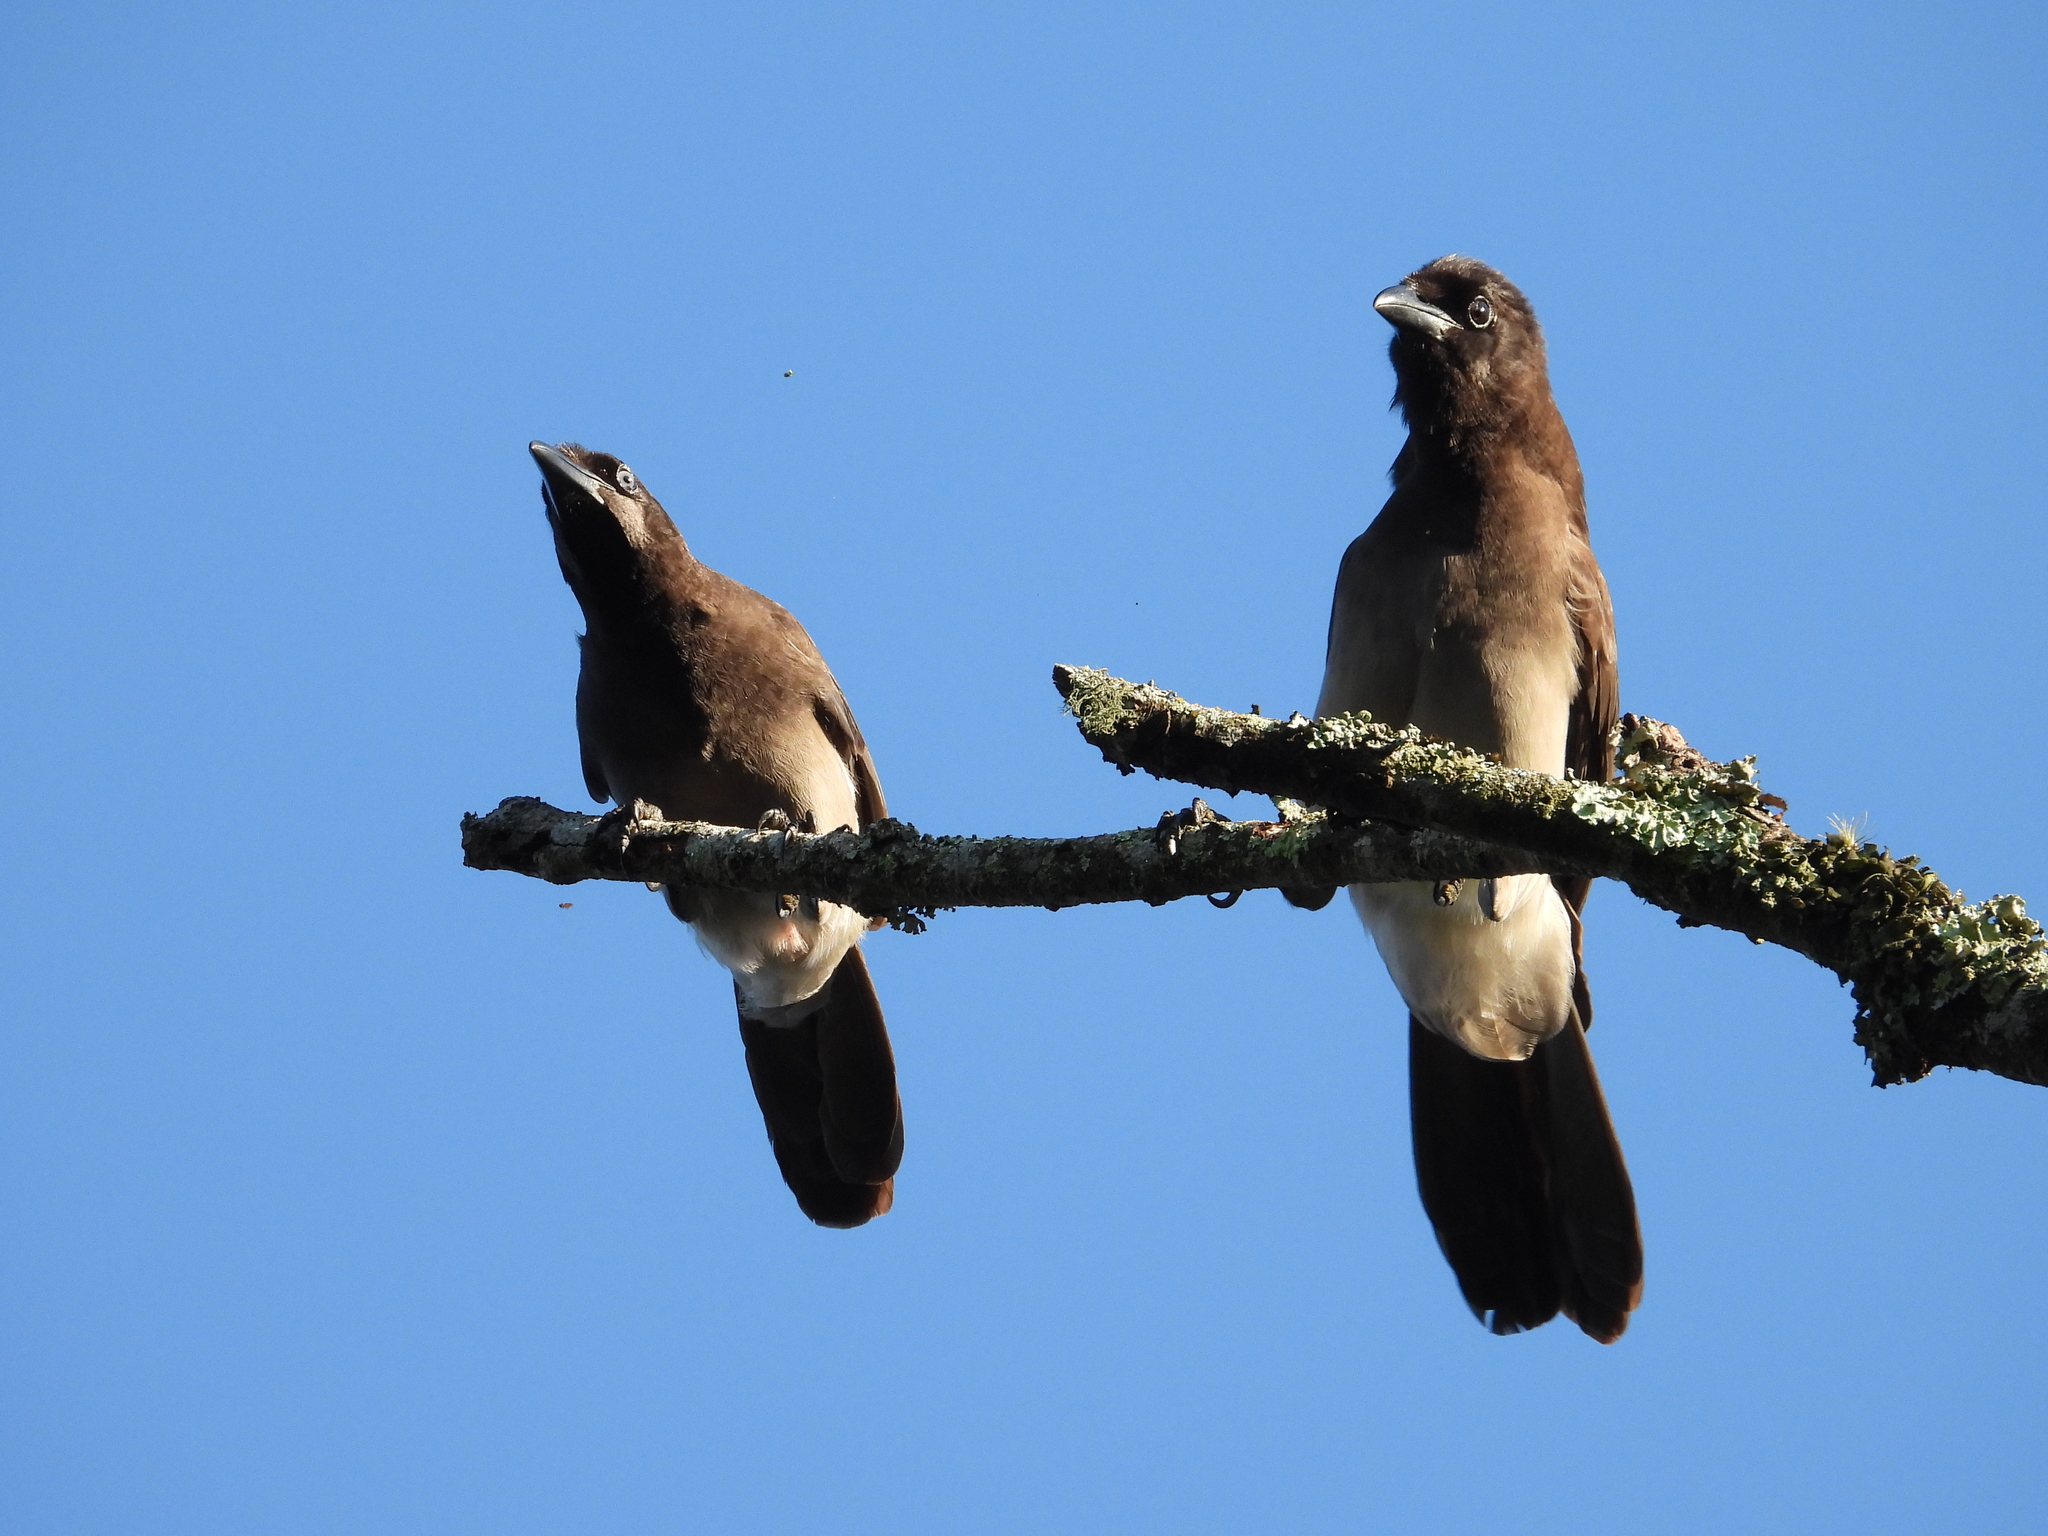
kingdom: Animalia
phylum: Chordata
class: Aves
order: Passeriformes
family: Corvidae
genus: Psilorhinus
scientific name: Psilorhinus morio
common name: Brown jay
